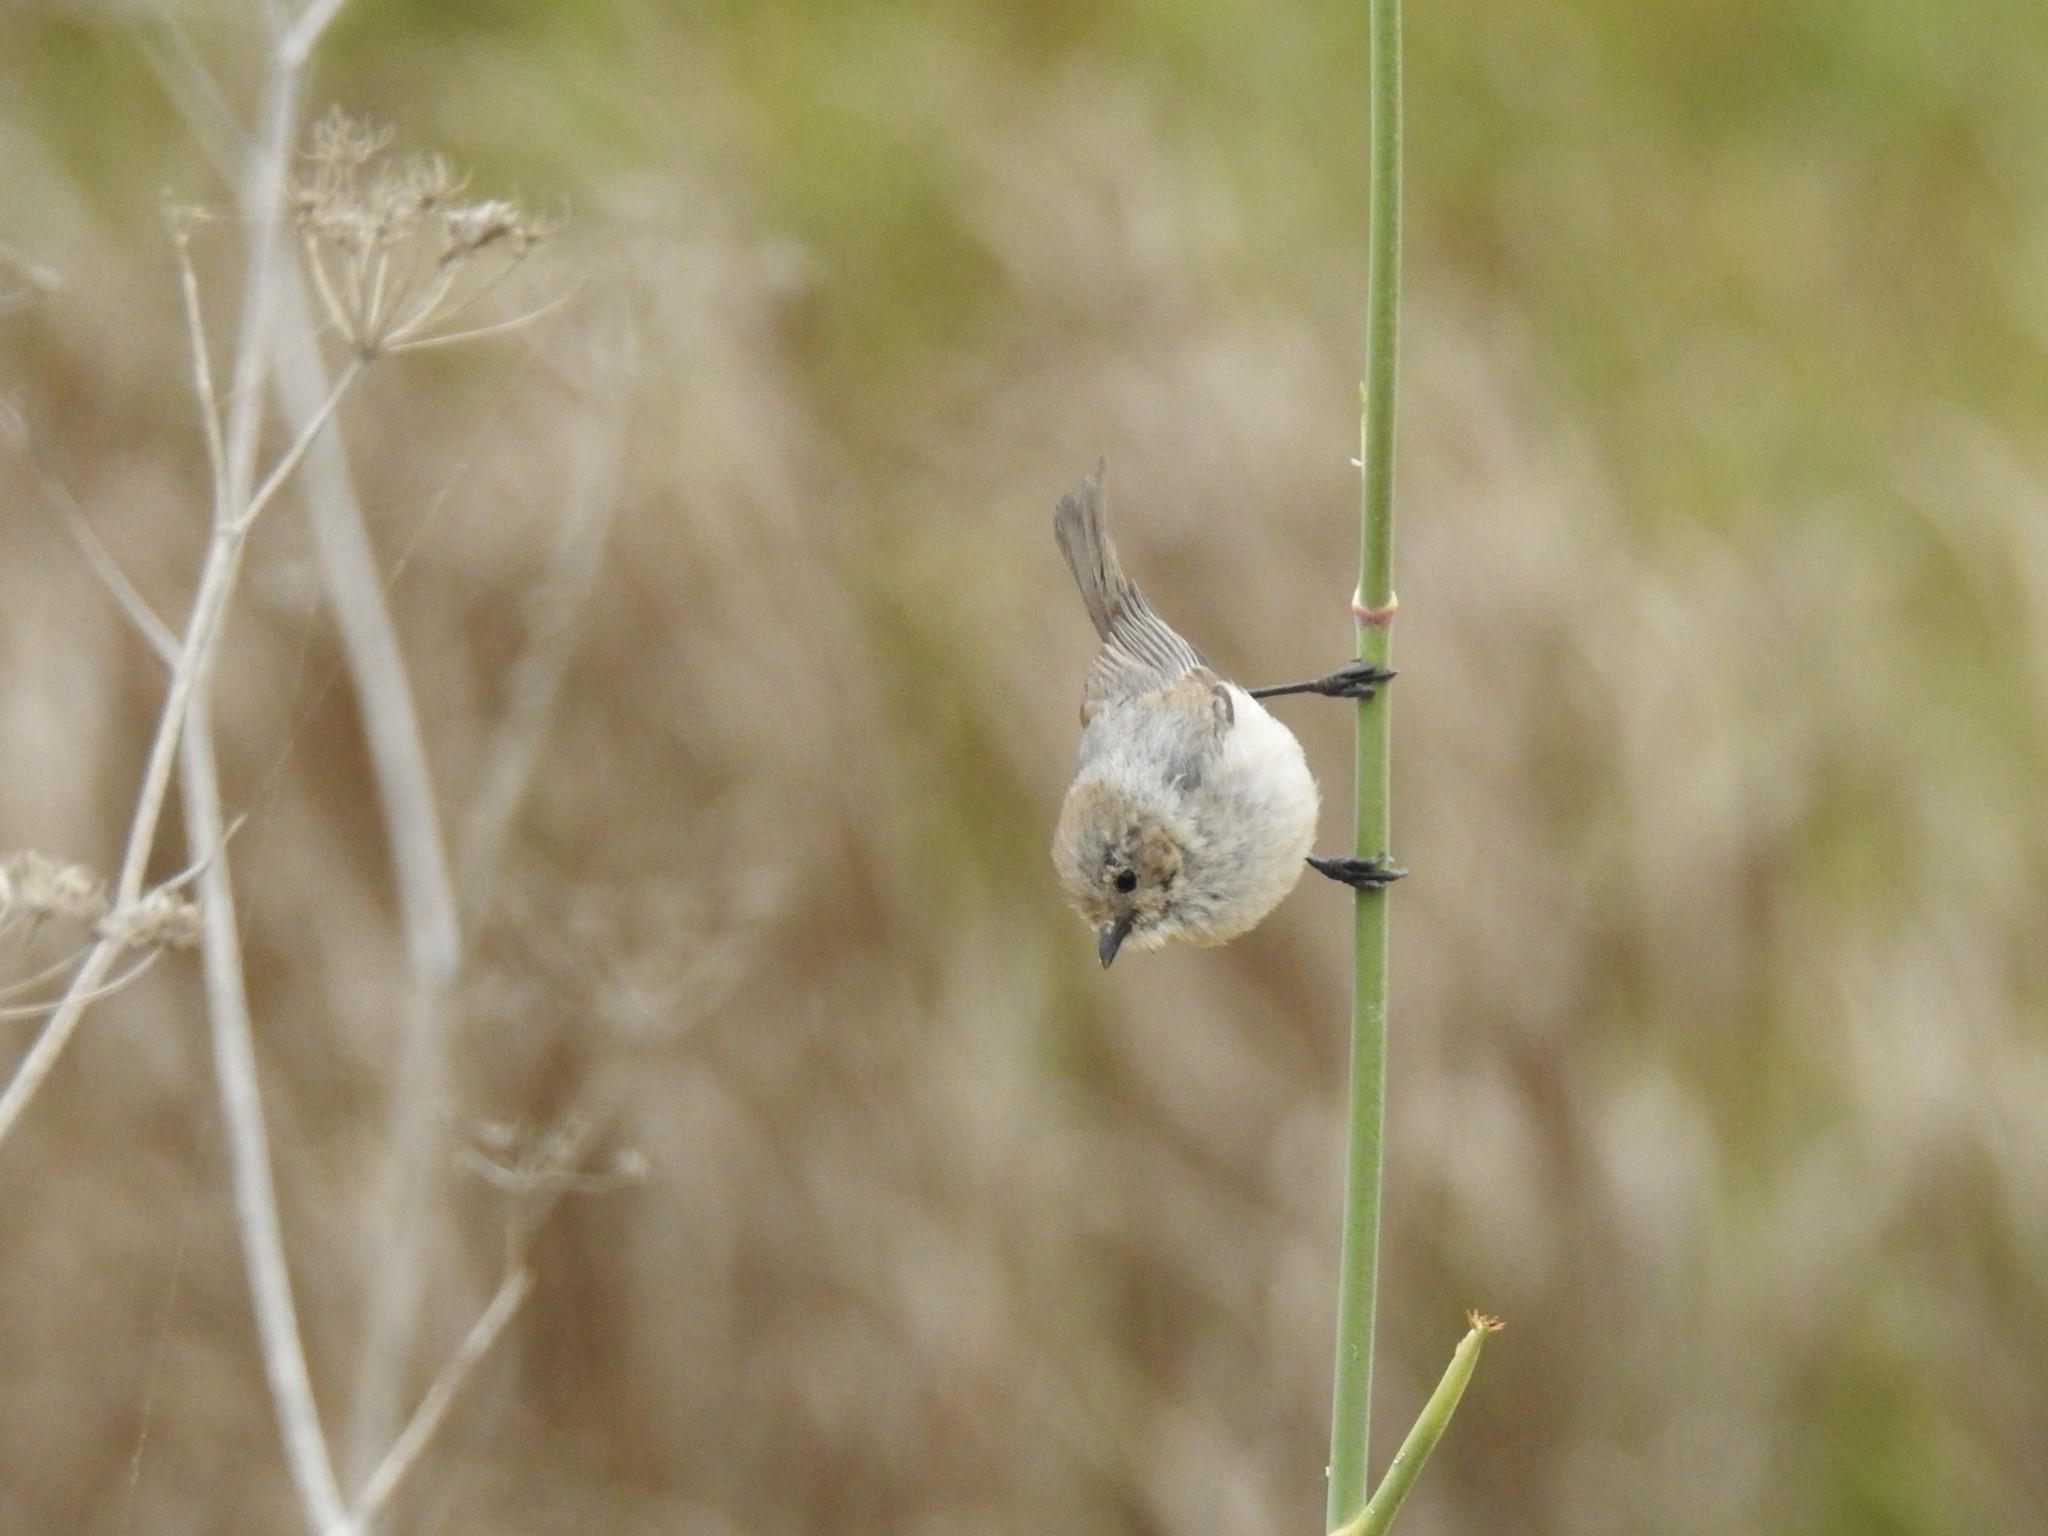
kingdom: Animalia
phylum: Chordata
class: Aves
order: Passeriformes
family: Aegithalidae
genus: Psaltriparus
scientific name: Psaltriparus minimus
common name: American bushtit
